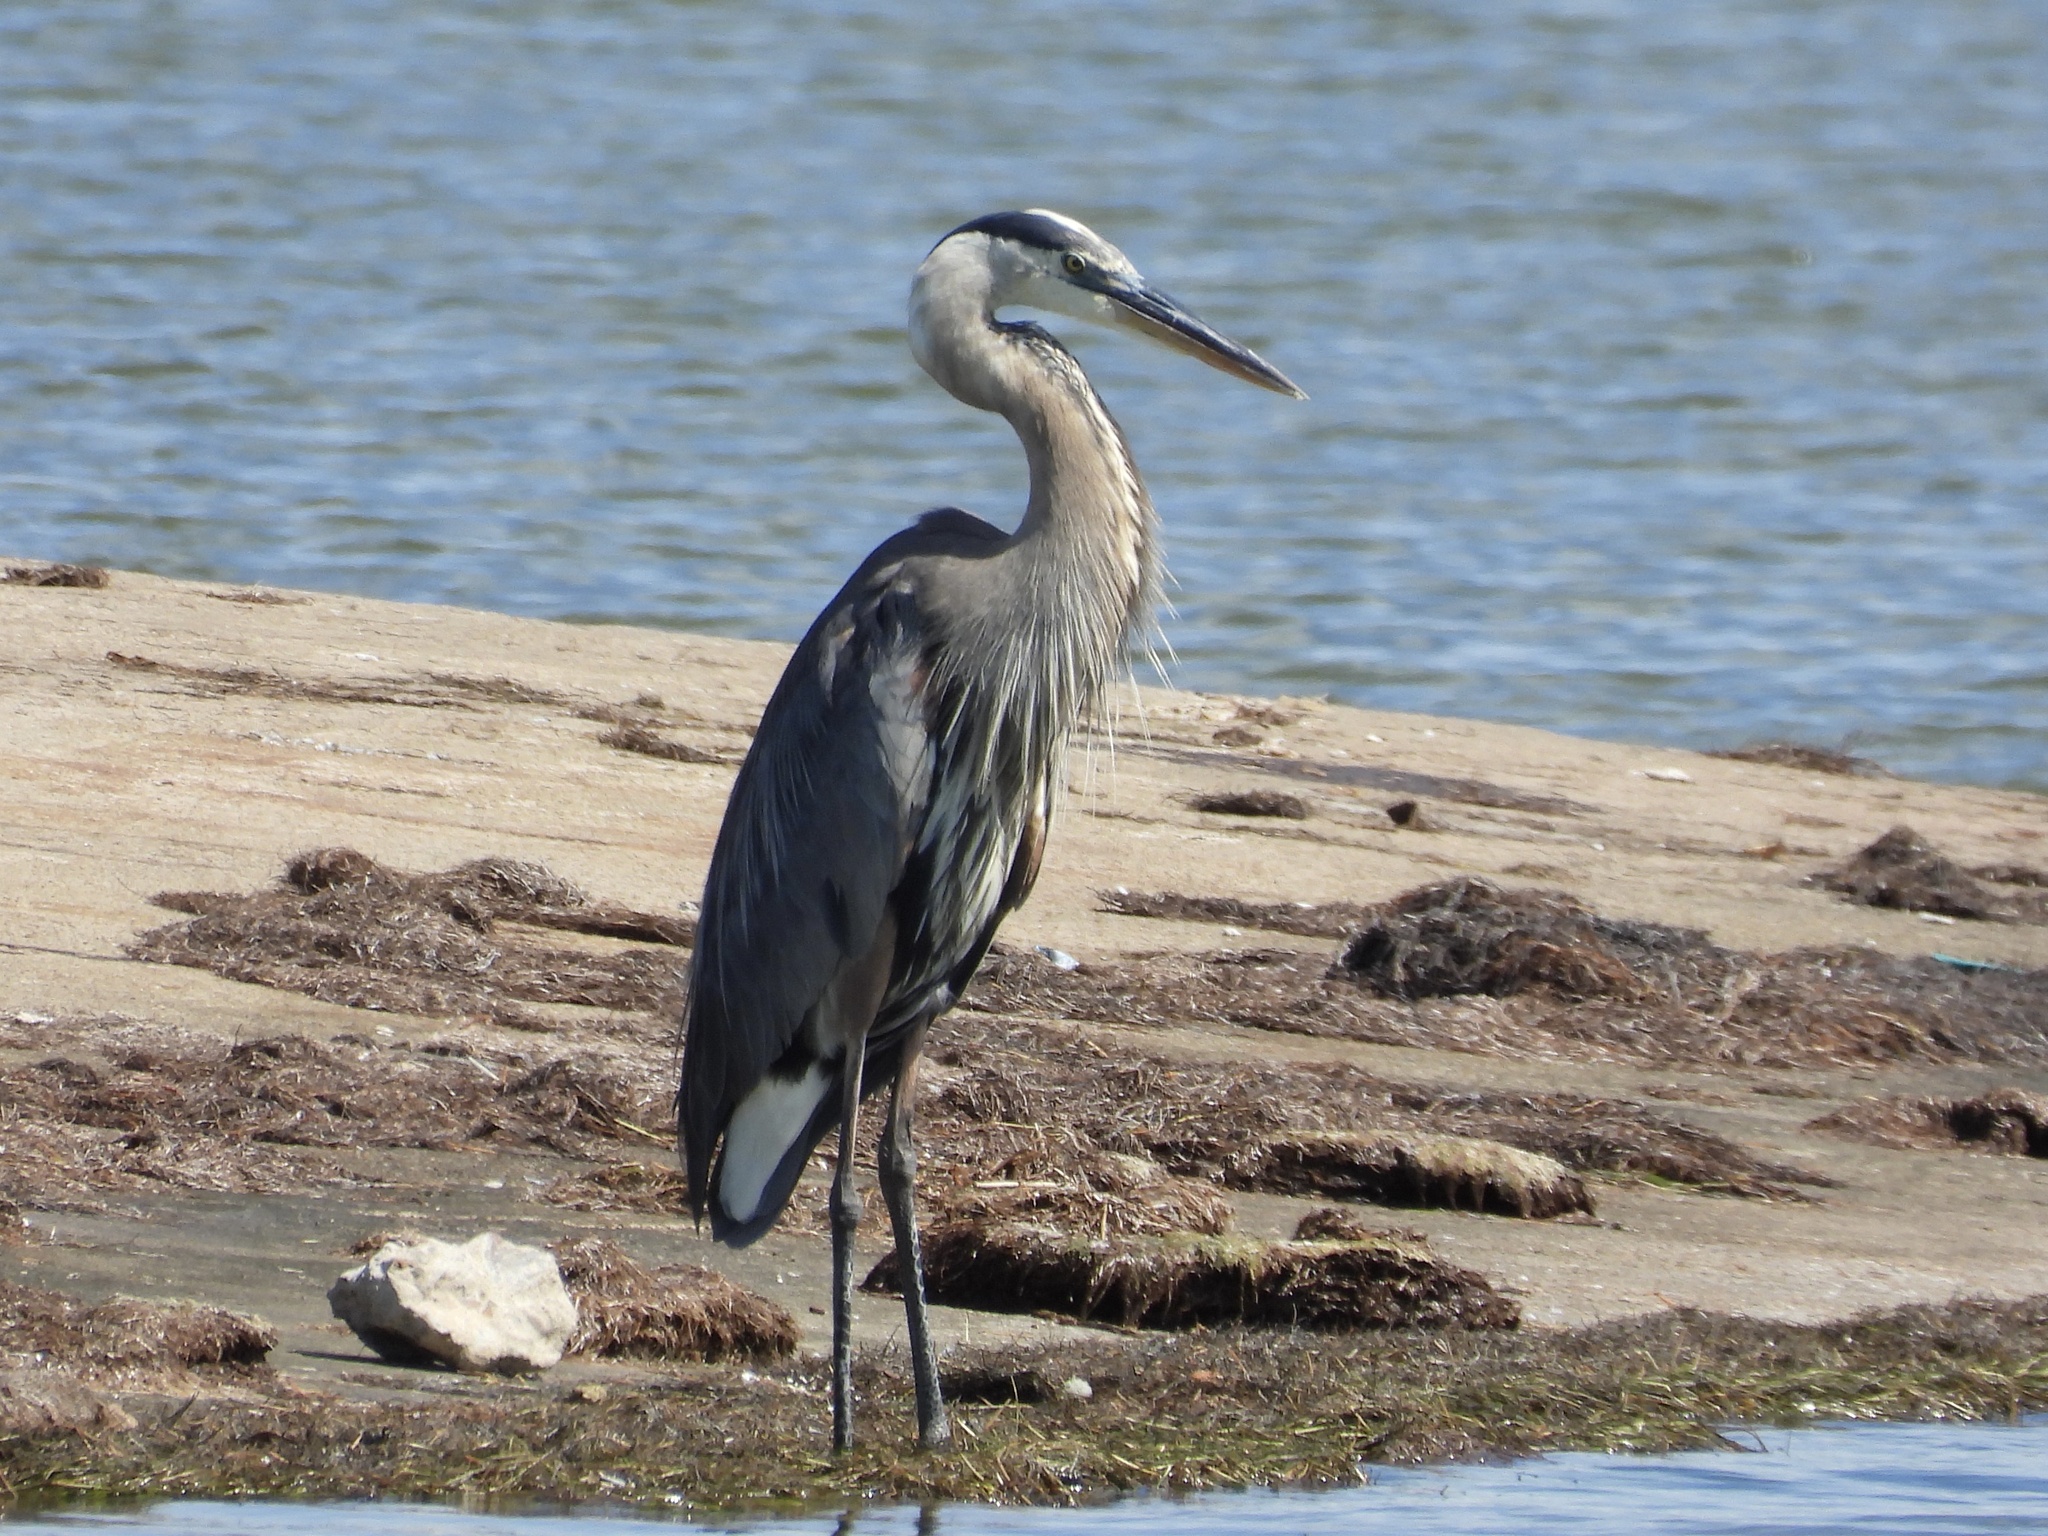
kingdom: Animalia
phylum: Chordata
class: Aves
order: Pelecaniformes
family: Ardeidae
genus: Ardea
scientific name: Ardea herodias
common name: Great blue heron
